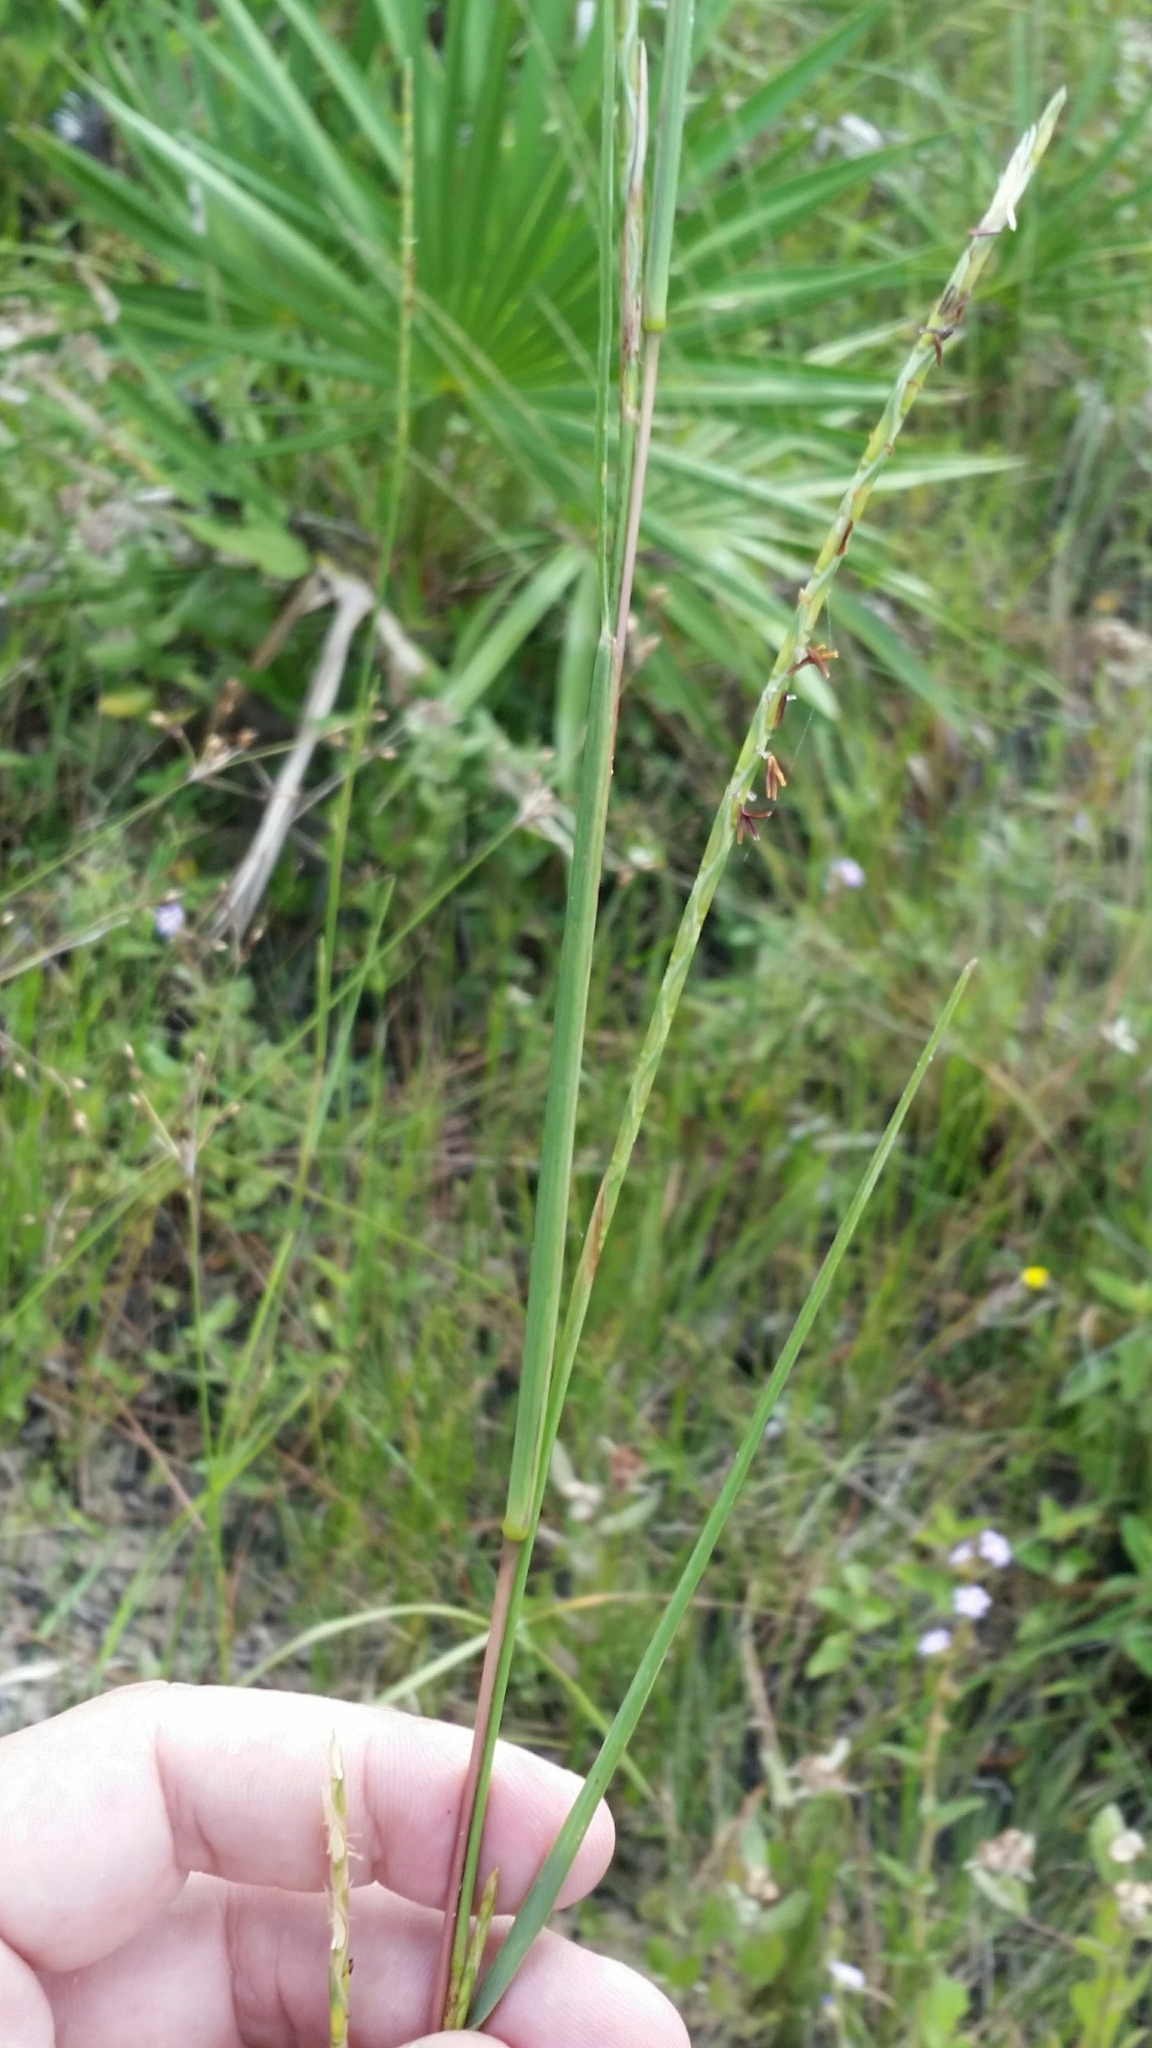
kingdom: Plantae
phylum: Tracheophyta
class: Liliopsida
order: Poales
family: Poaceae
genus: Elionurus
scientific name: Elionurus tripsacoides
